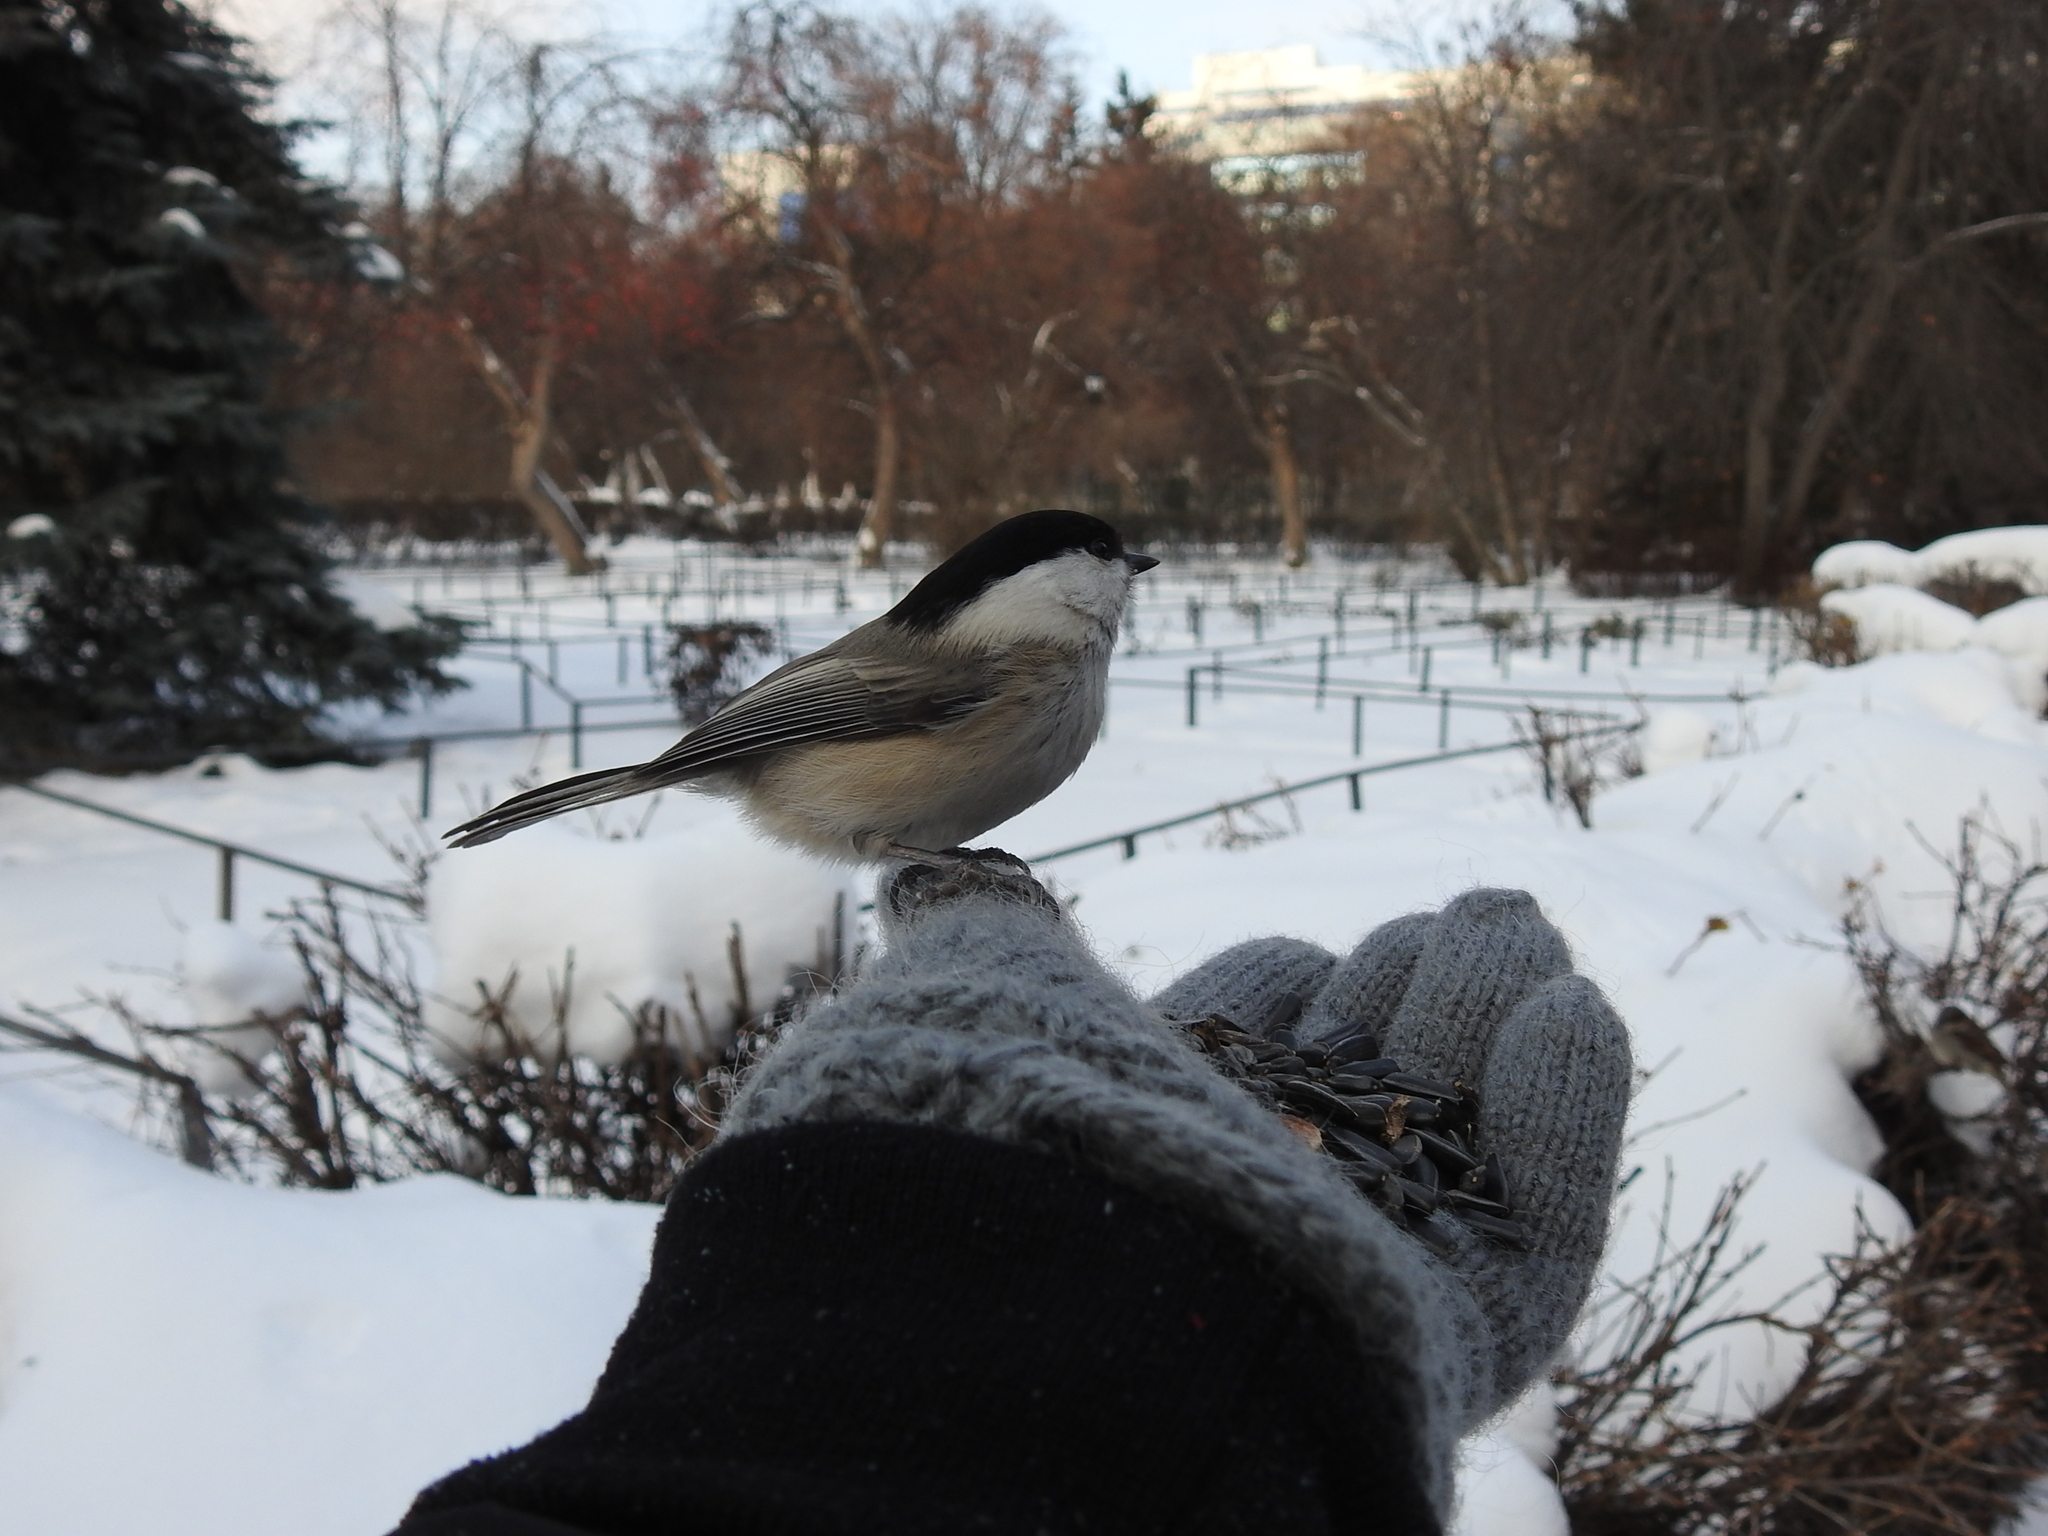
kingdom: Animalia
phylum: Chordata
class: Aves
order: Passeriformes
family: Paridae
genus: Poecile
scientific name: Poecile montanus
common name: Willow tit
